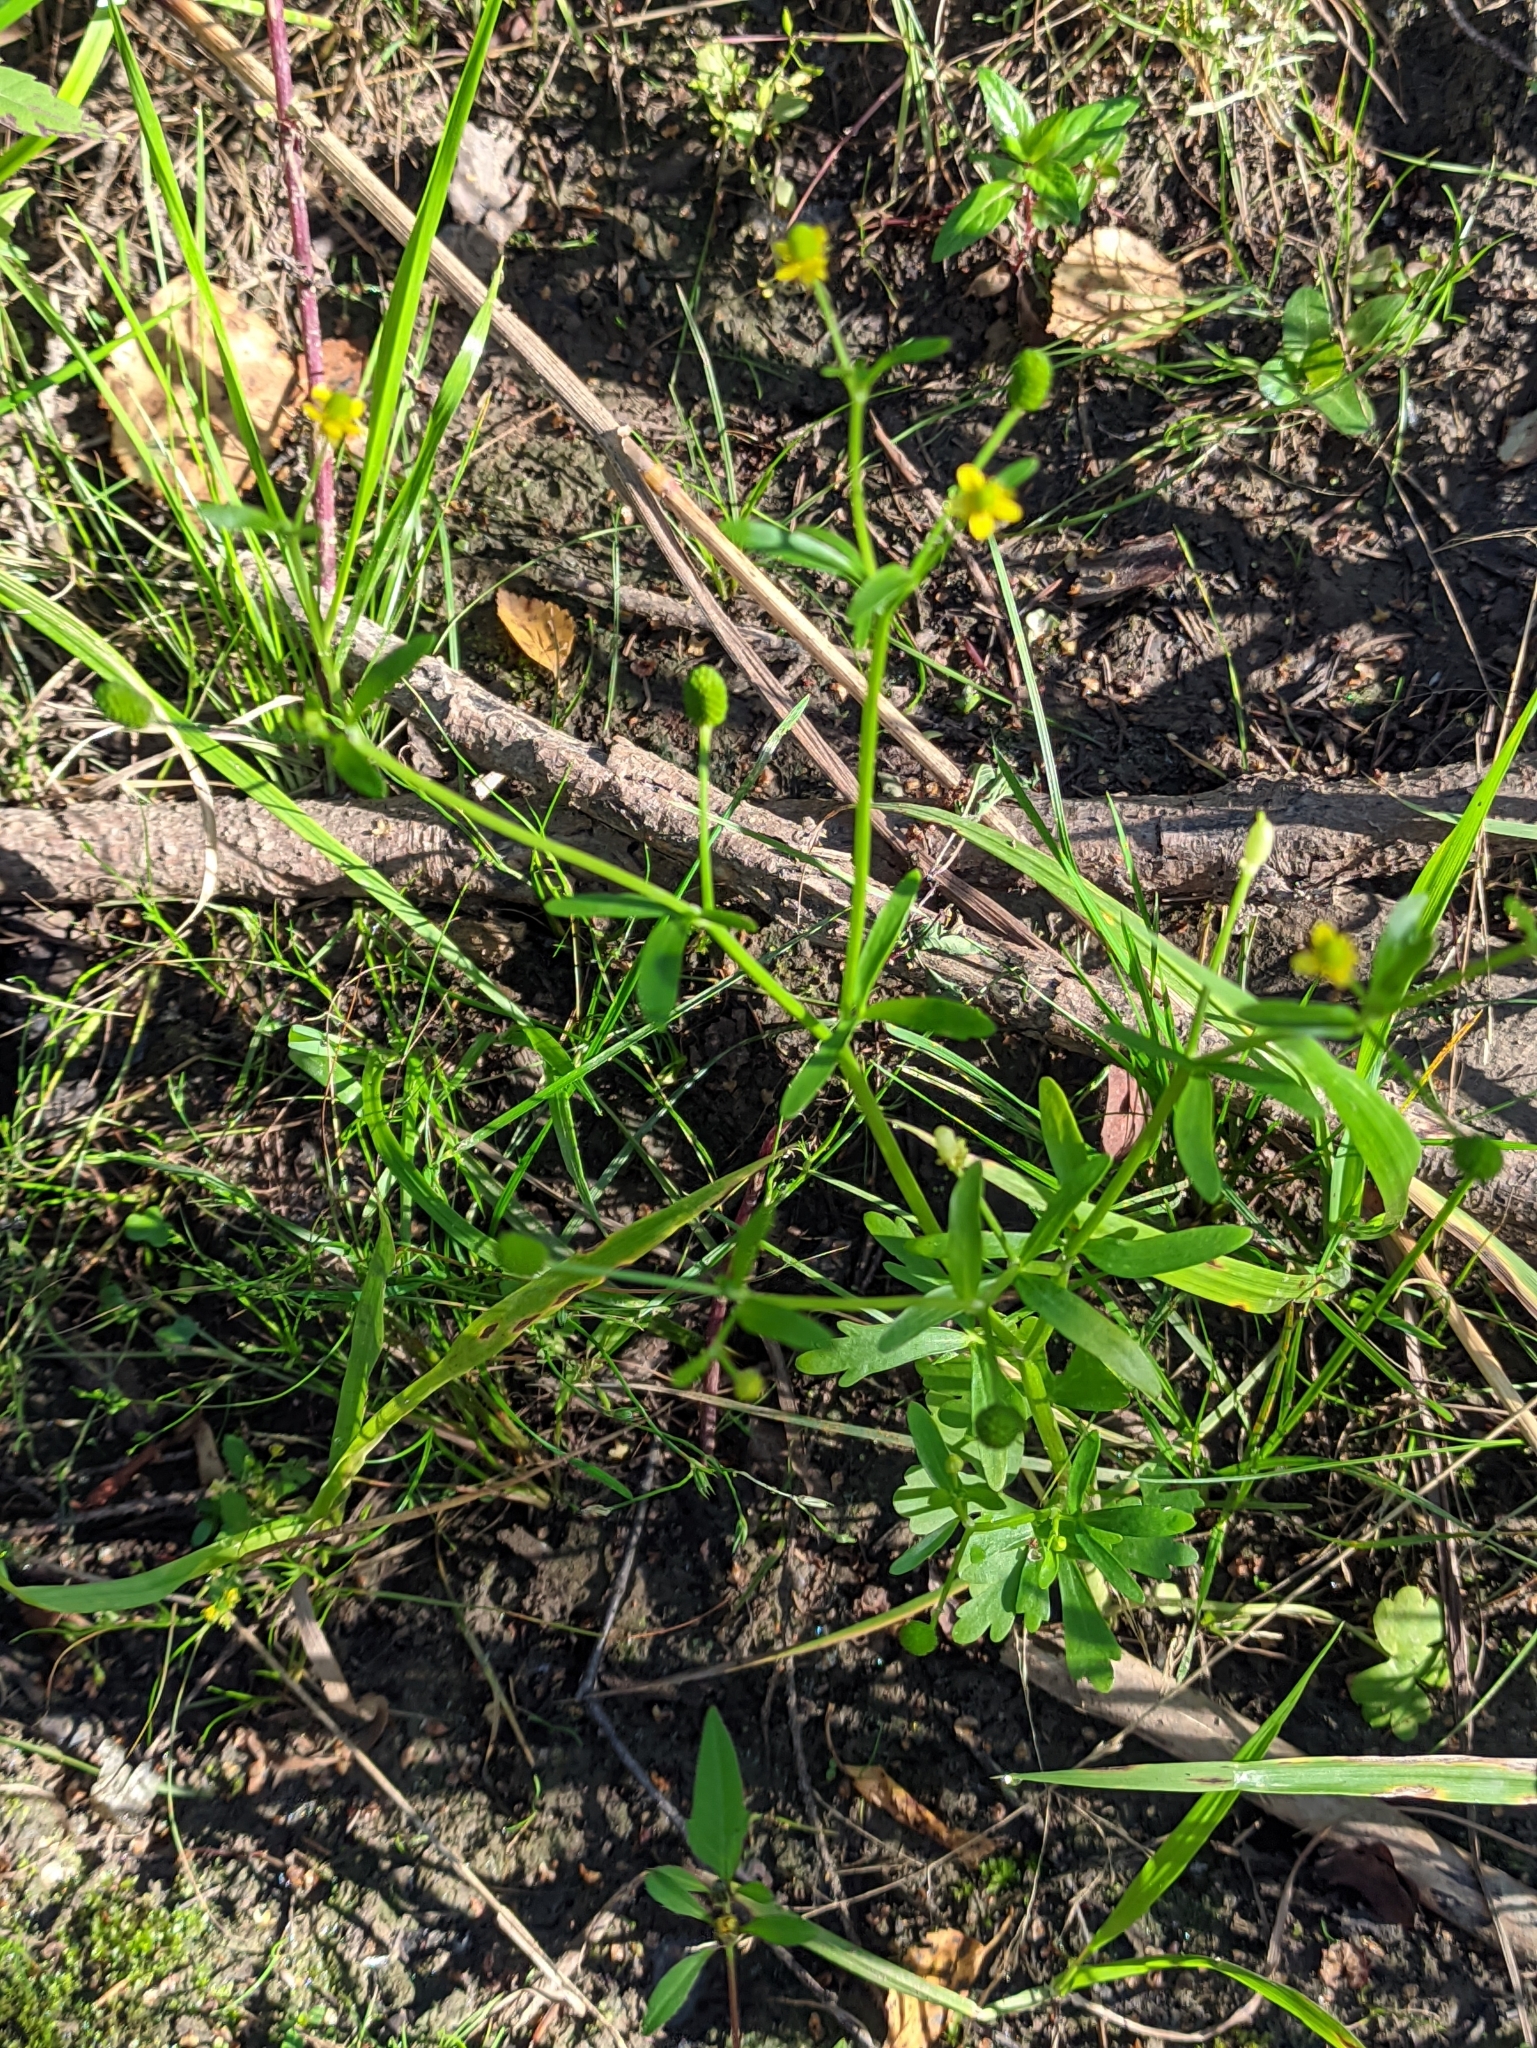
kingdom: Plantae
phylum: Tracheophyta
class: Magnoliopsida
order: Ranunculales
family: Ranunculaceae
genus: Ranunculus
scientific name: Ranunculus sceleratus
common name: Celery-leaved buttercup
